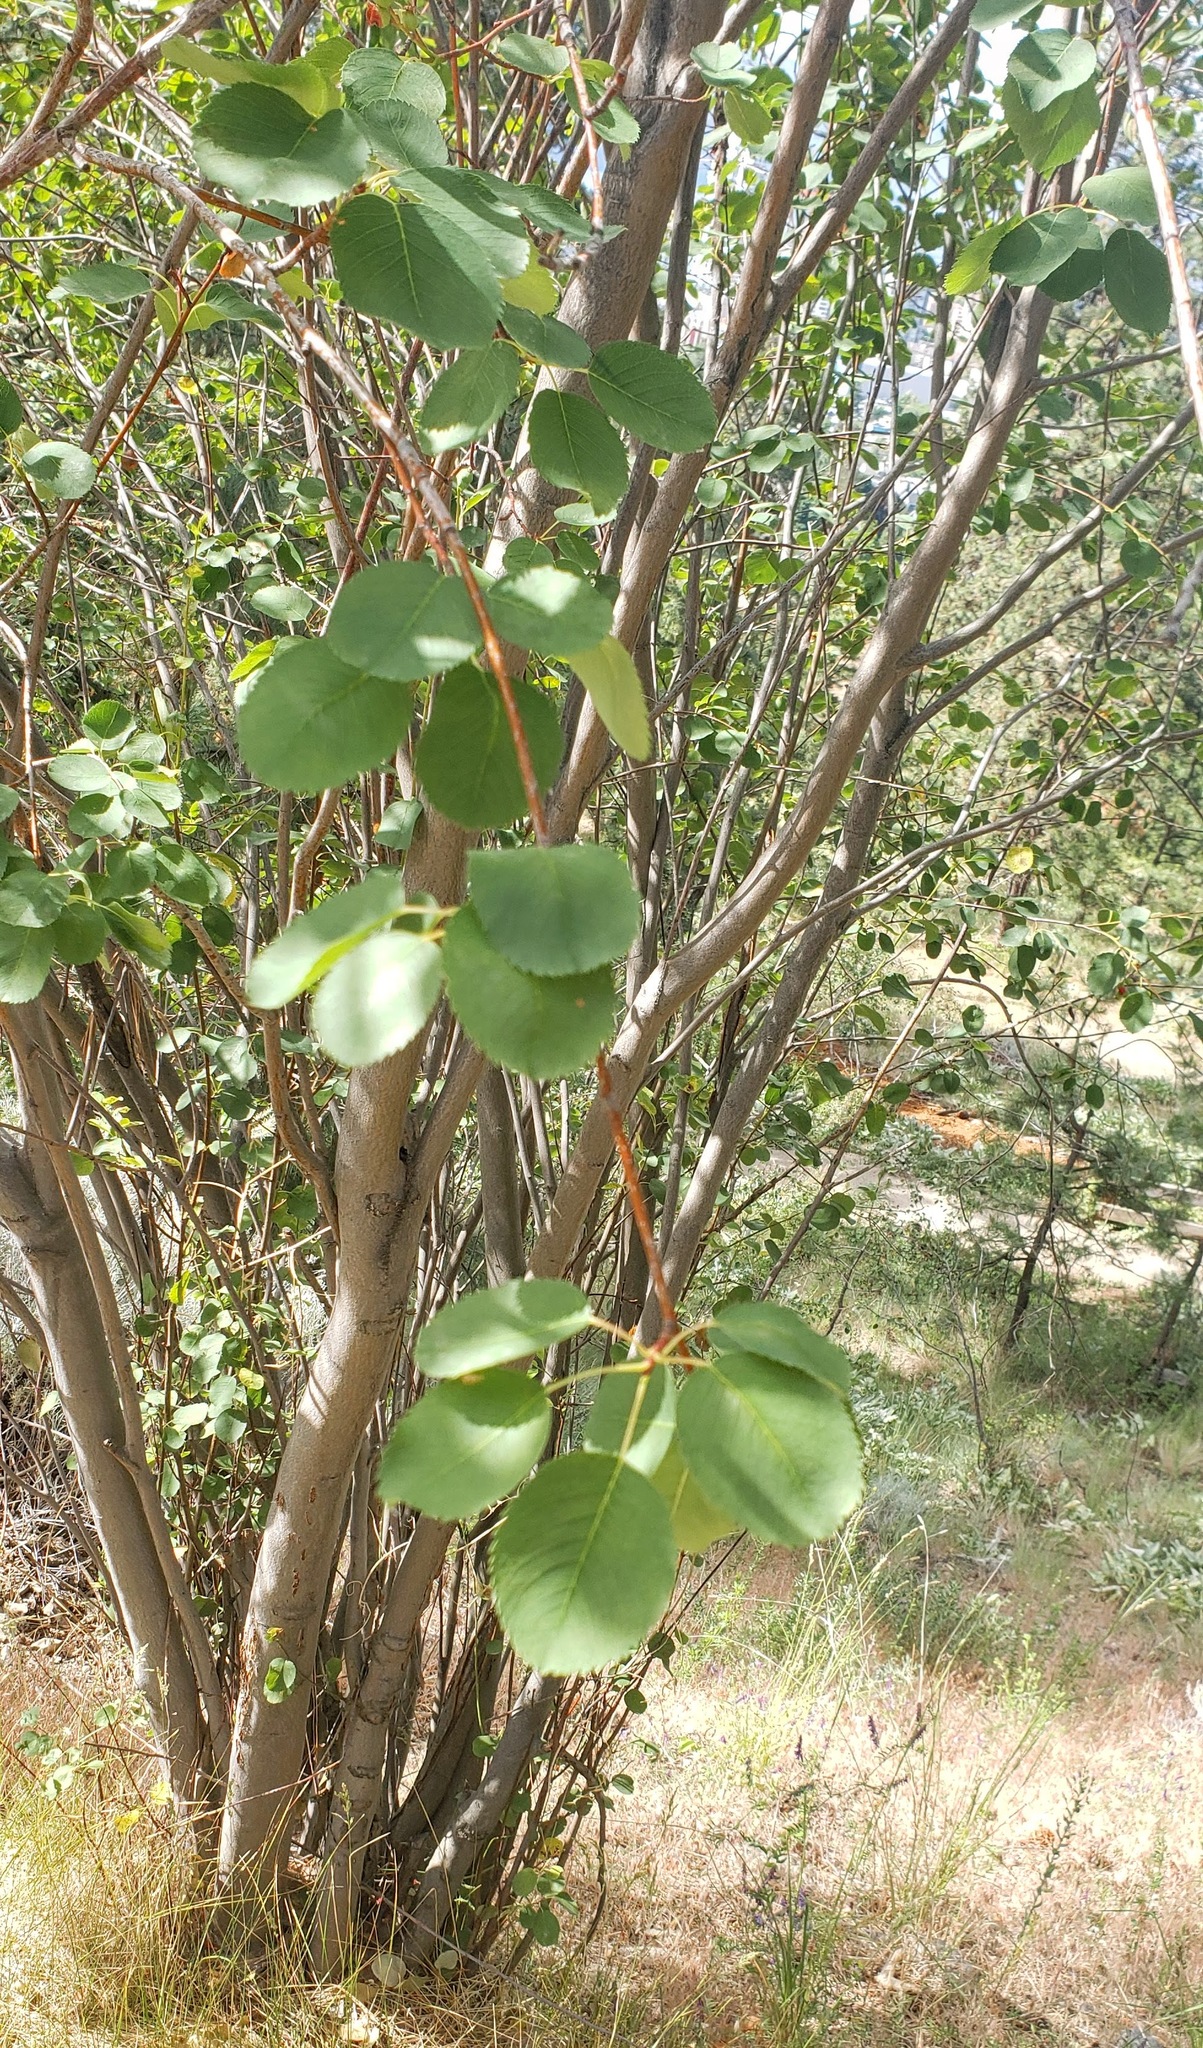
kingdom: Plantae
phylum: Tracheophyta
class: Magnoliopsida
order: Rosales
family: Rosaceae
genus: Amelanchier
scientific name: Amelanchier alnifolia
